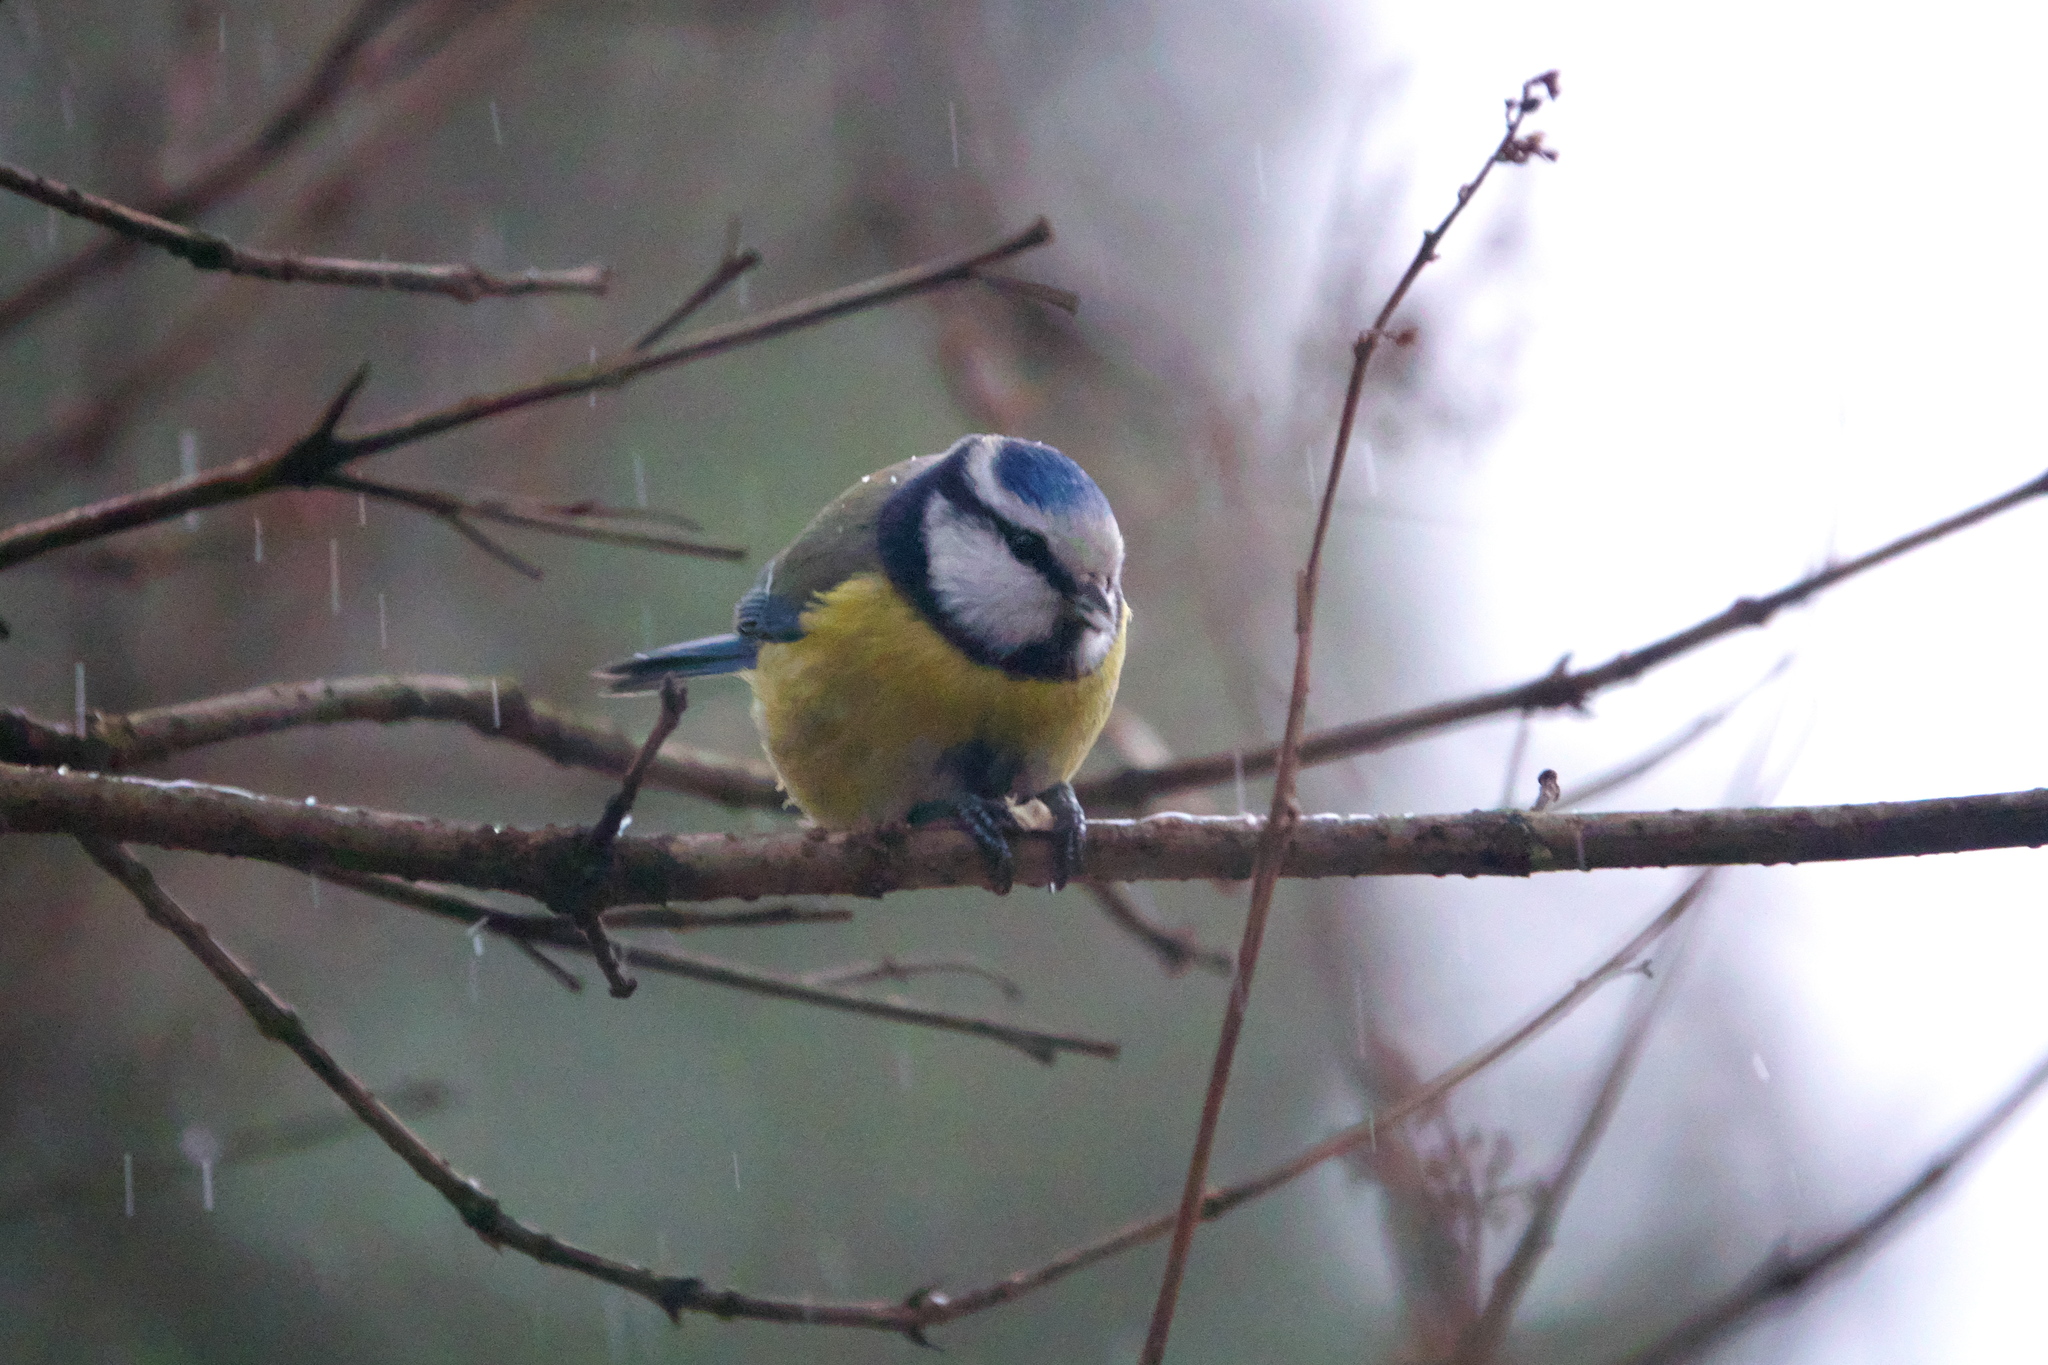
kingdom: Animalia
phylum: Chordata
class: Aves
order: Passeriformes
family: Paridae
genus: Cyanistes
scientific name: Cyanistes caeruleus
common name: Eurasian blue tit
